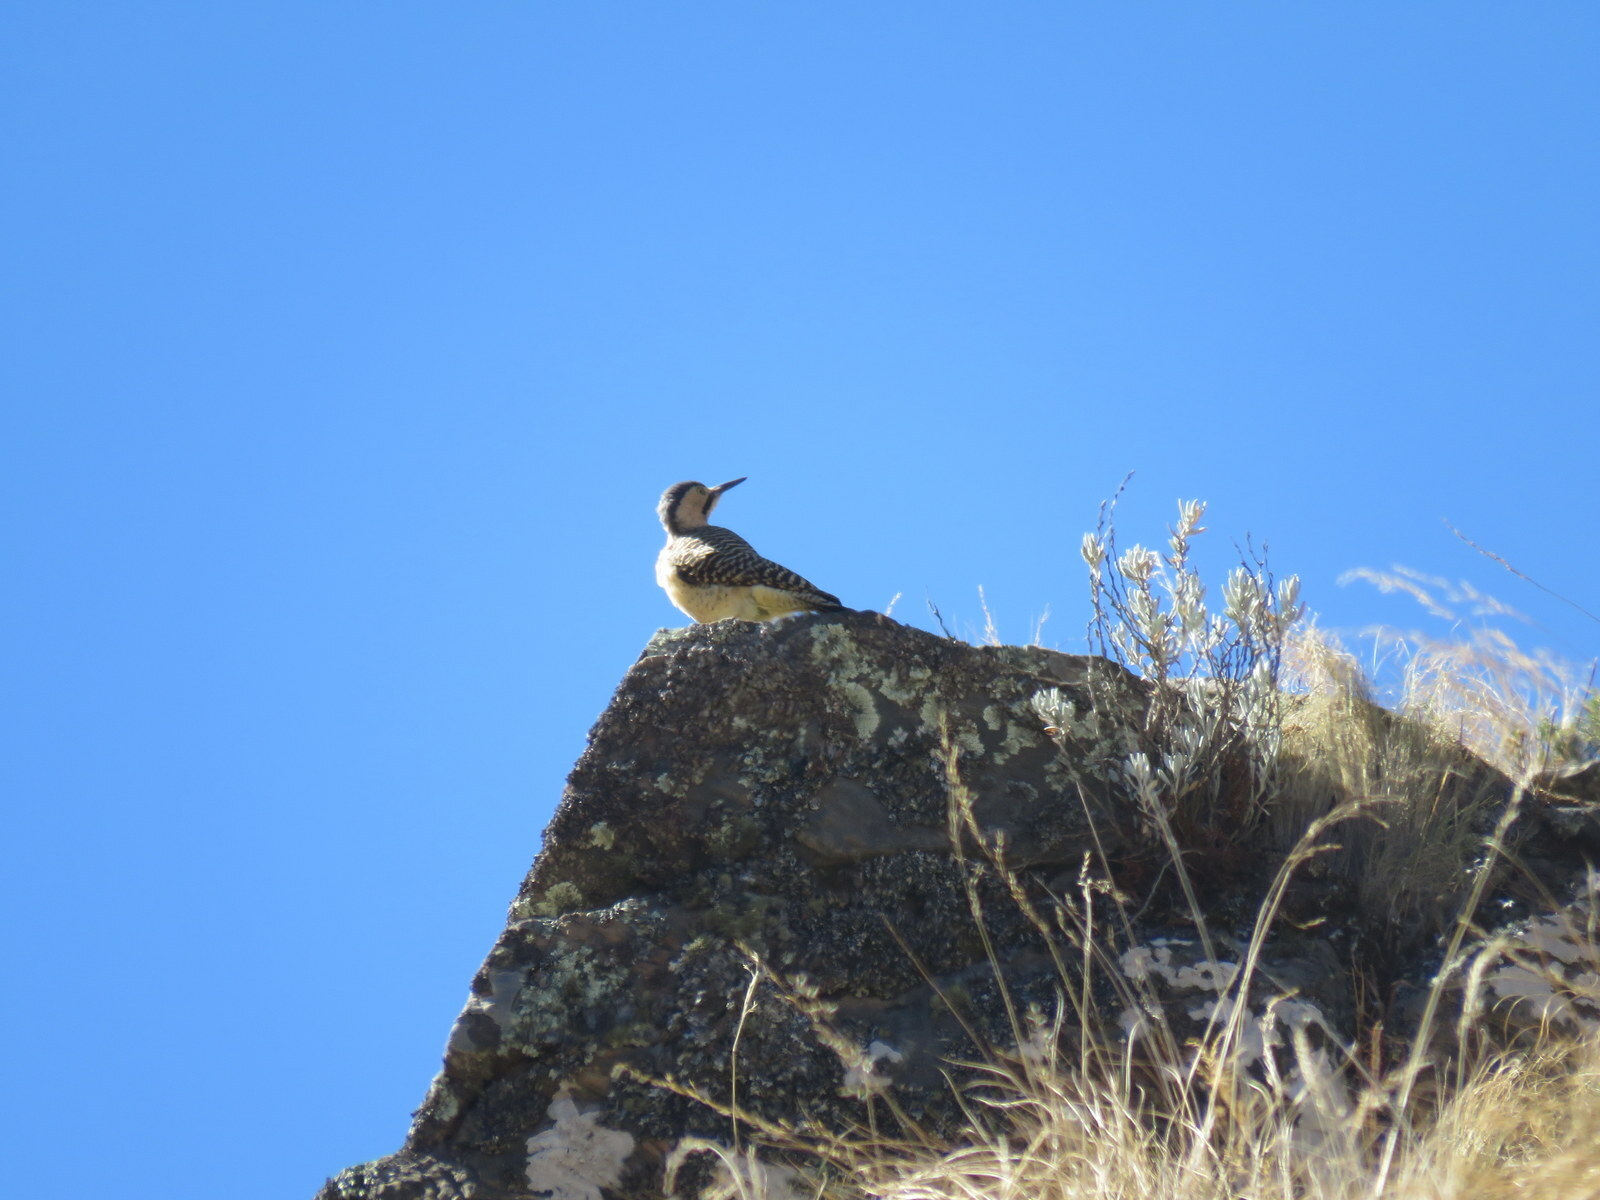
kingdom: Animalia
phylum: Chordata
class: Aves
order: Piciformes
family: Picidae
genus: Colaptes
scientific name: Colaptes rupicola
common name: Andean flicker
